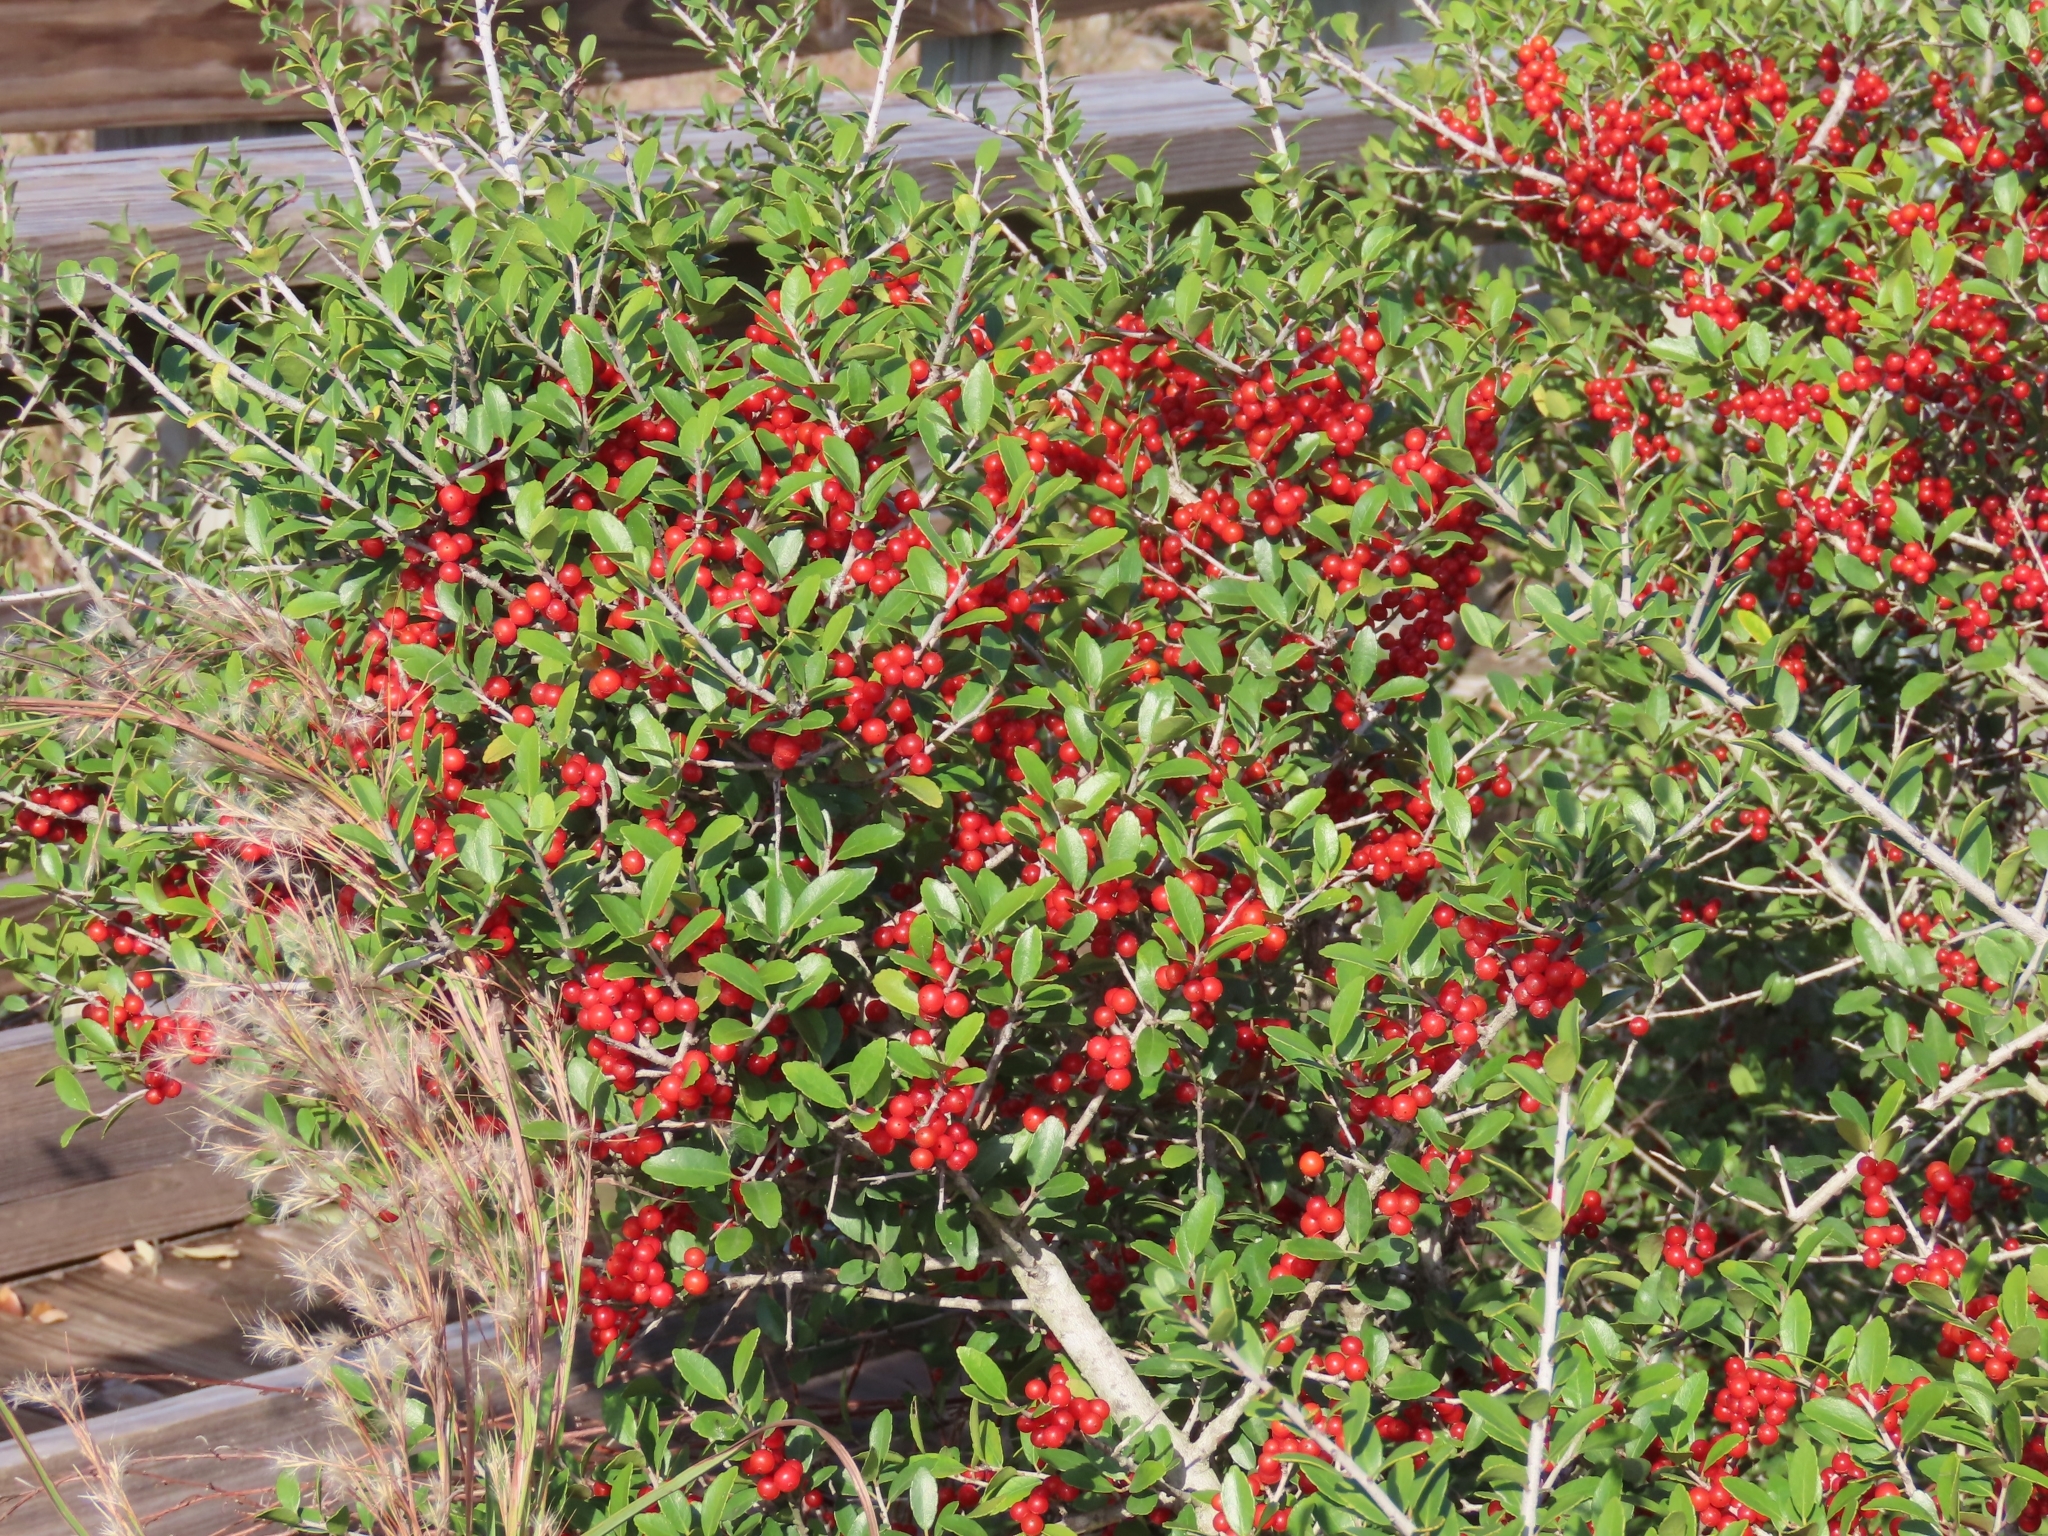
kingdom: Plantae
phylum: Tracheophyta
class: Magnoliopsida
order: Aquifoliales
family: Aquifoliaceae
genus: Ilex
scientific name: Ilex vomitoria
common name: Yaupon holly
